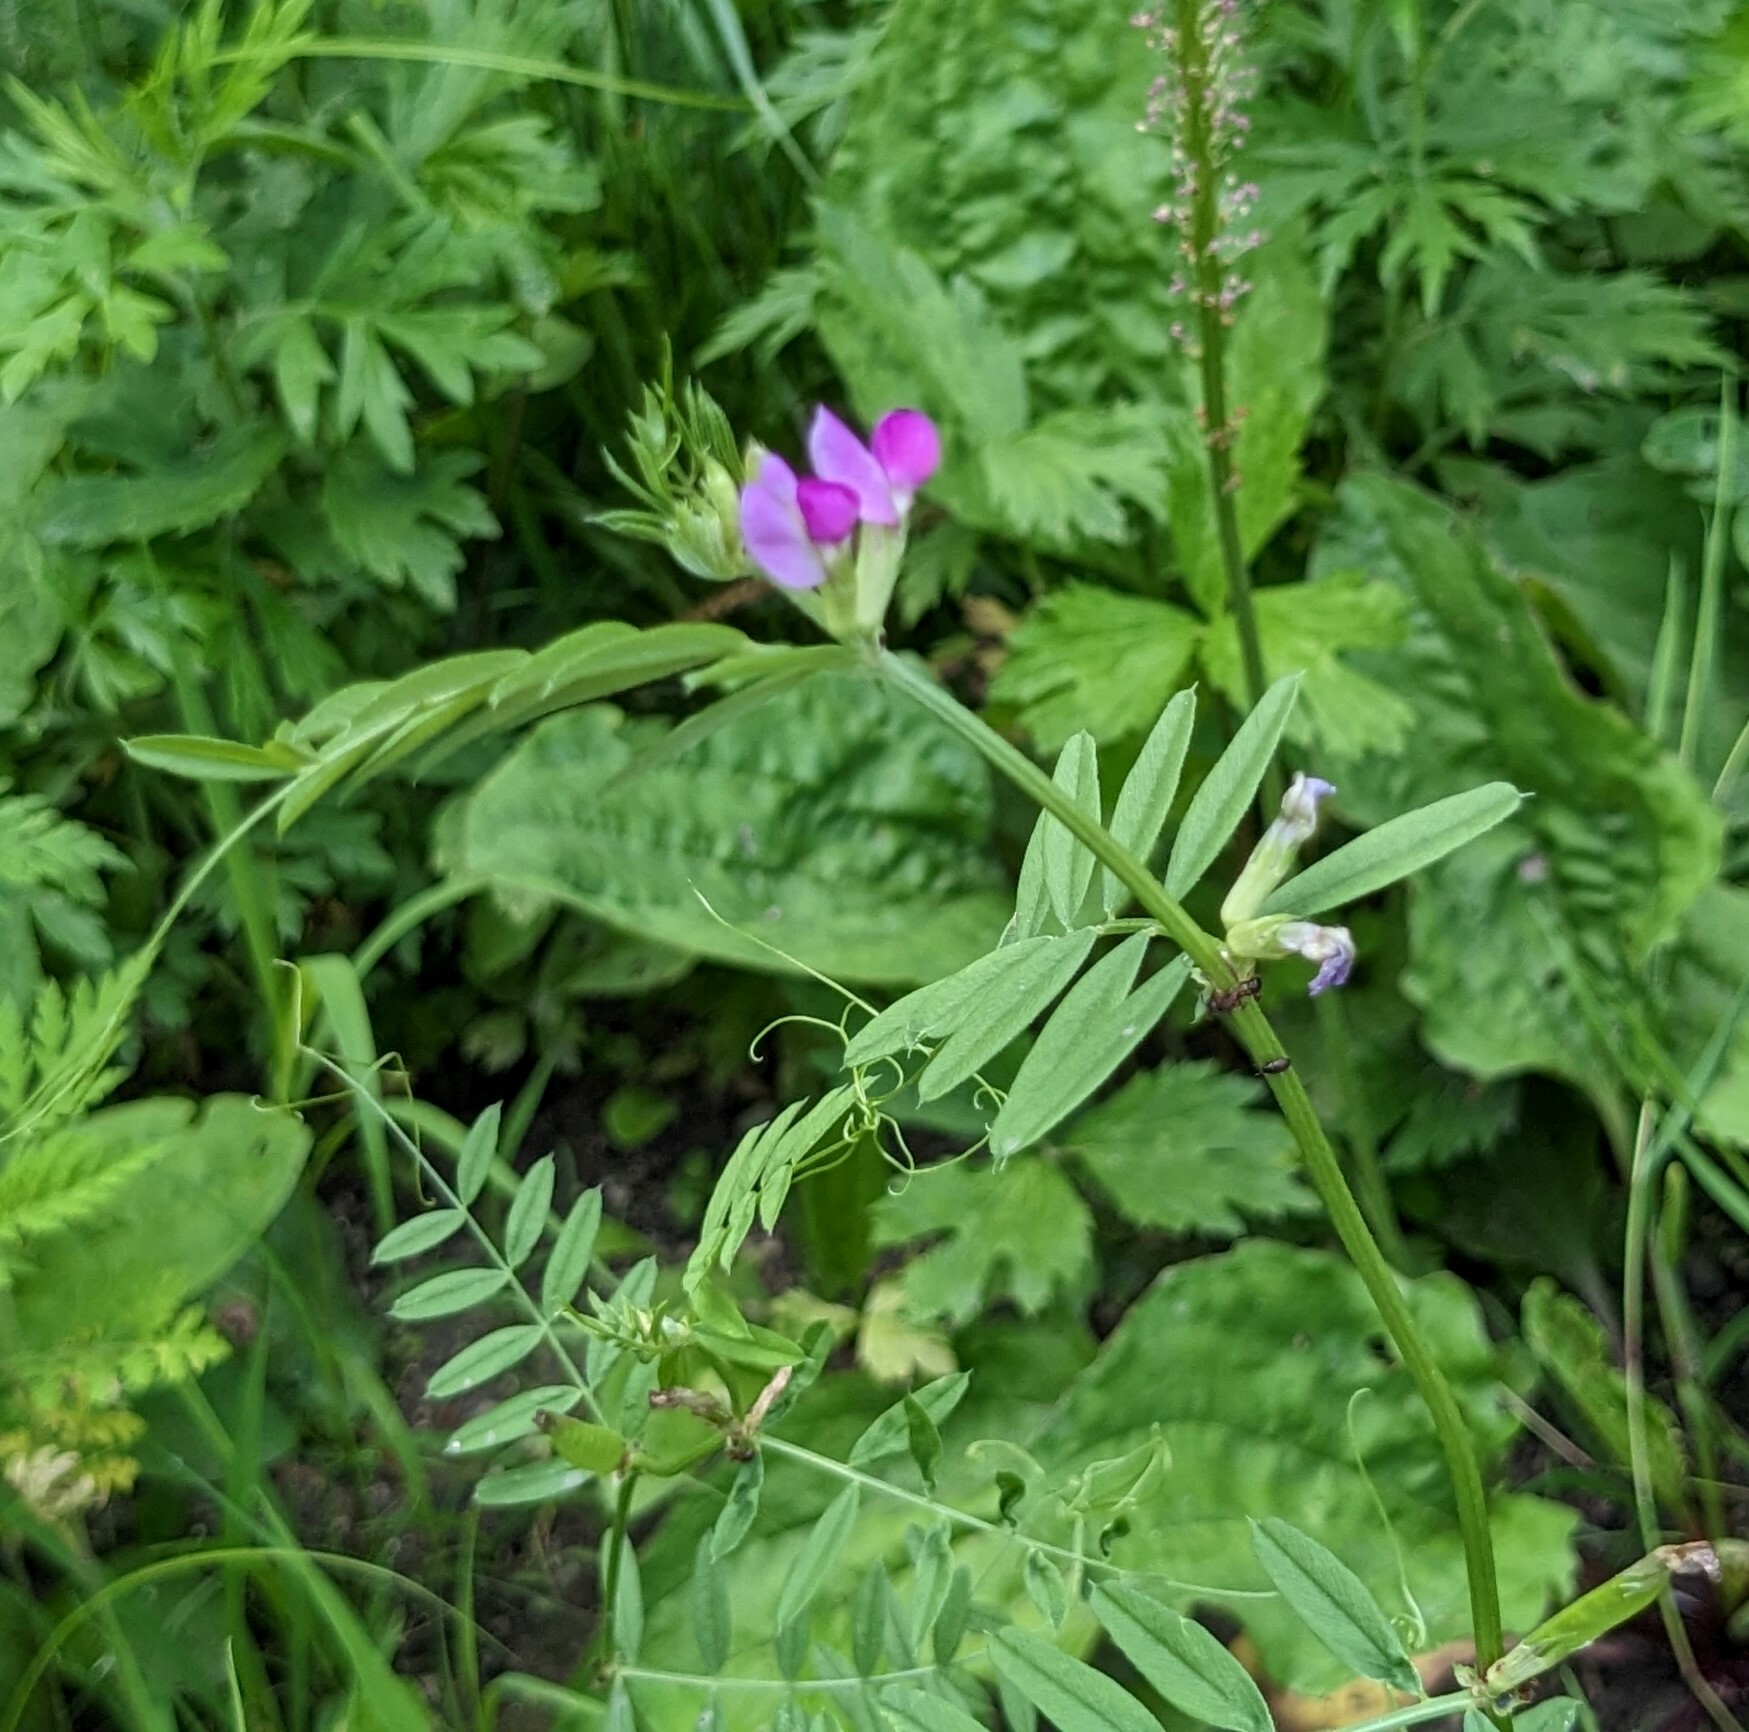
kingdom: Plantae
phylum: Tracheophyta
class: Magnoliopsida
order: Fabales
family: Fabaceae
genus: Vicia
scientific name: Vicia sativa
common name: Garden vetch
